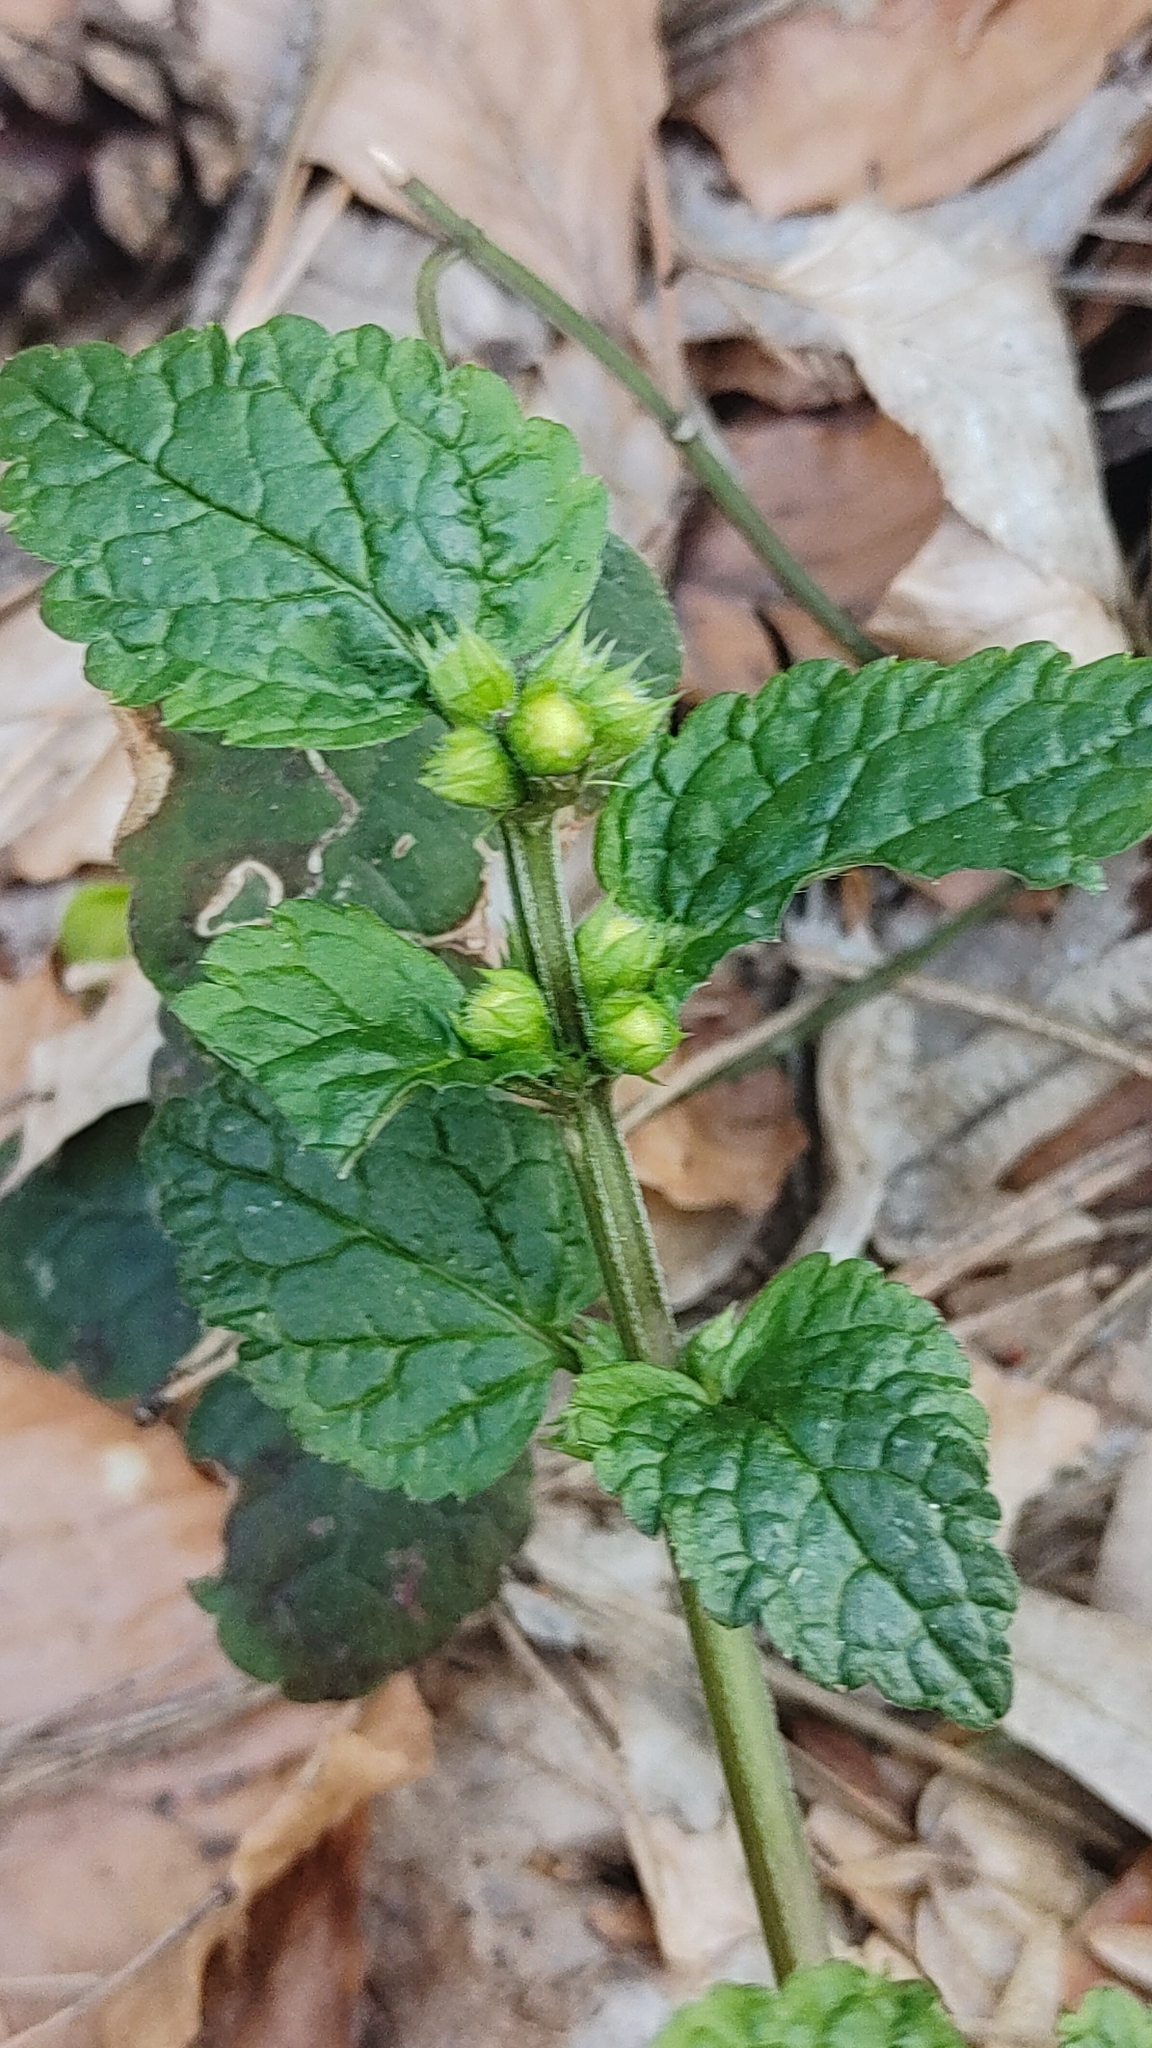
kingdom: Plantae
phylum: Tracheophyta
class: Magnoliopsida
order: Lamiales
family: Lamiaceae
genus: Lamium
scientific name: Lamium galeobdolon
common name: Yellow archangel
